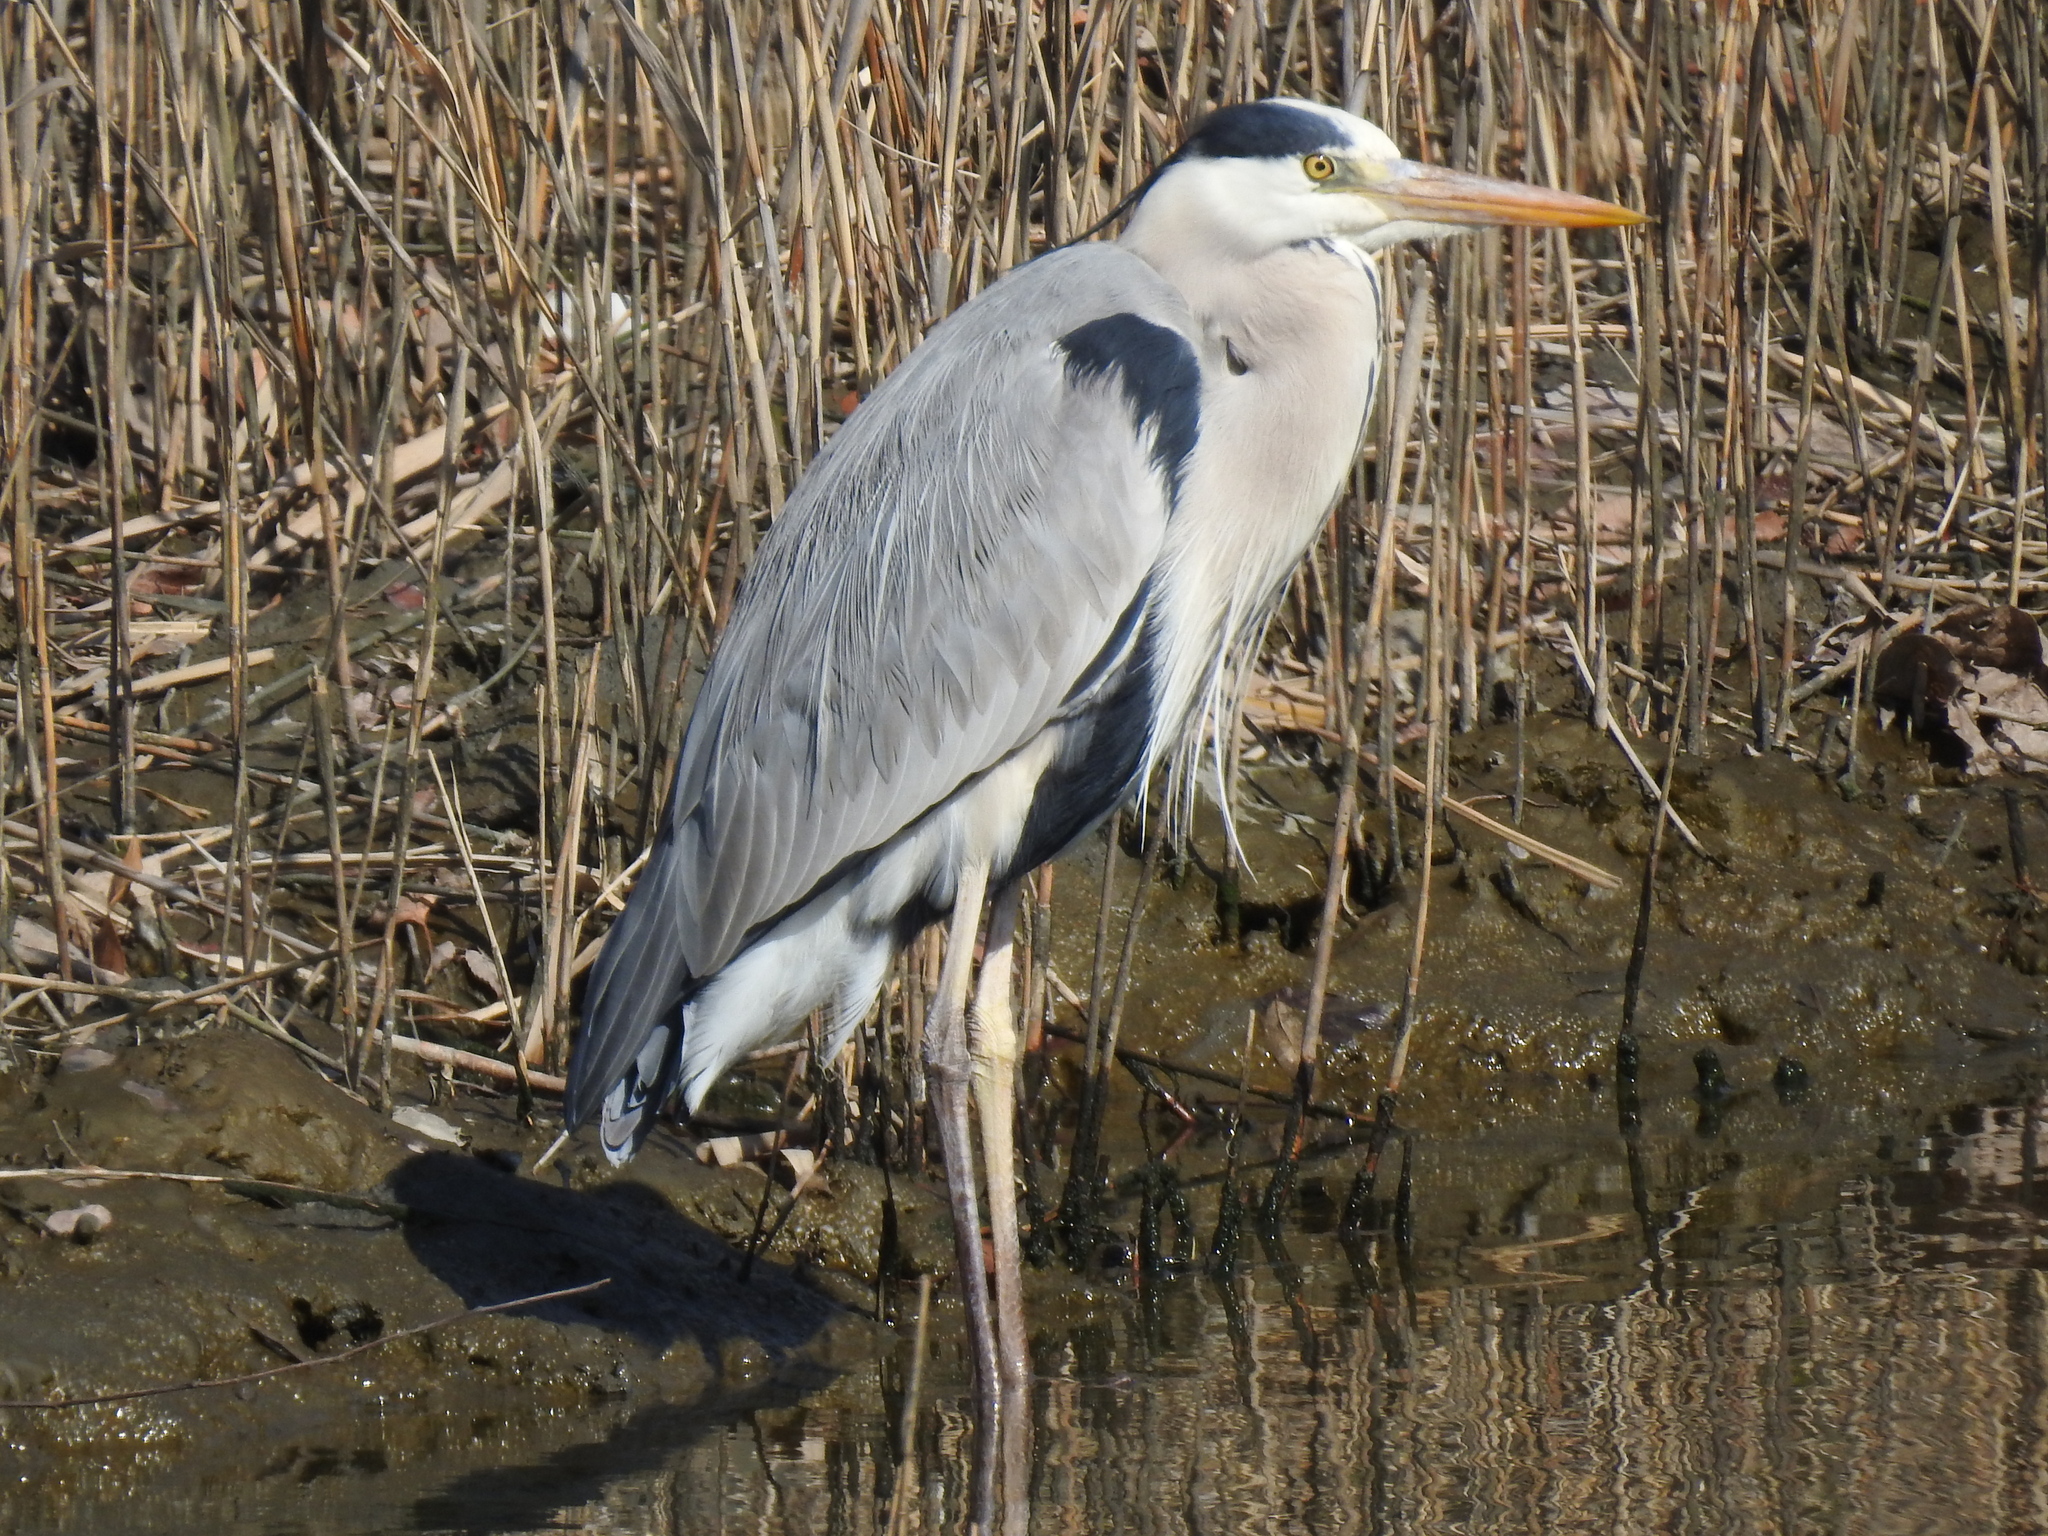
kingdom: Animalia
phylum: Chordata
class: Aves
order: Pelecaniformes
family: Ardeidae
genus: Ardea
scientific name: Ardea cinerea
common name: Grey heron
